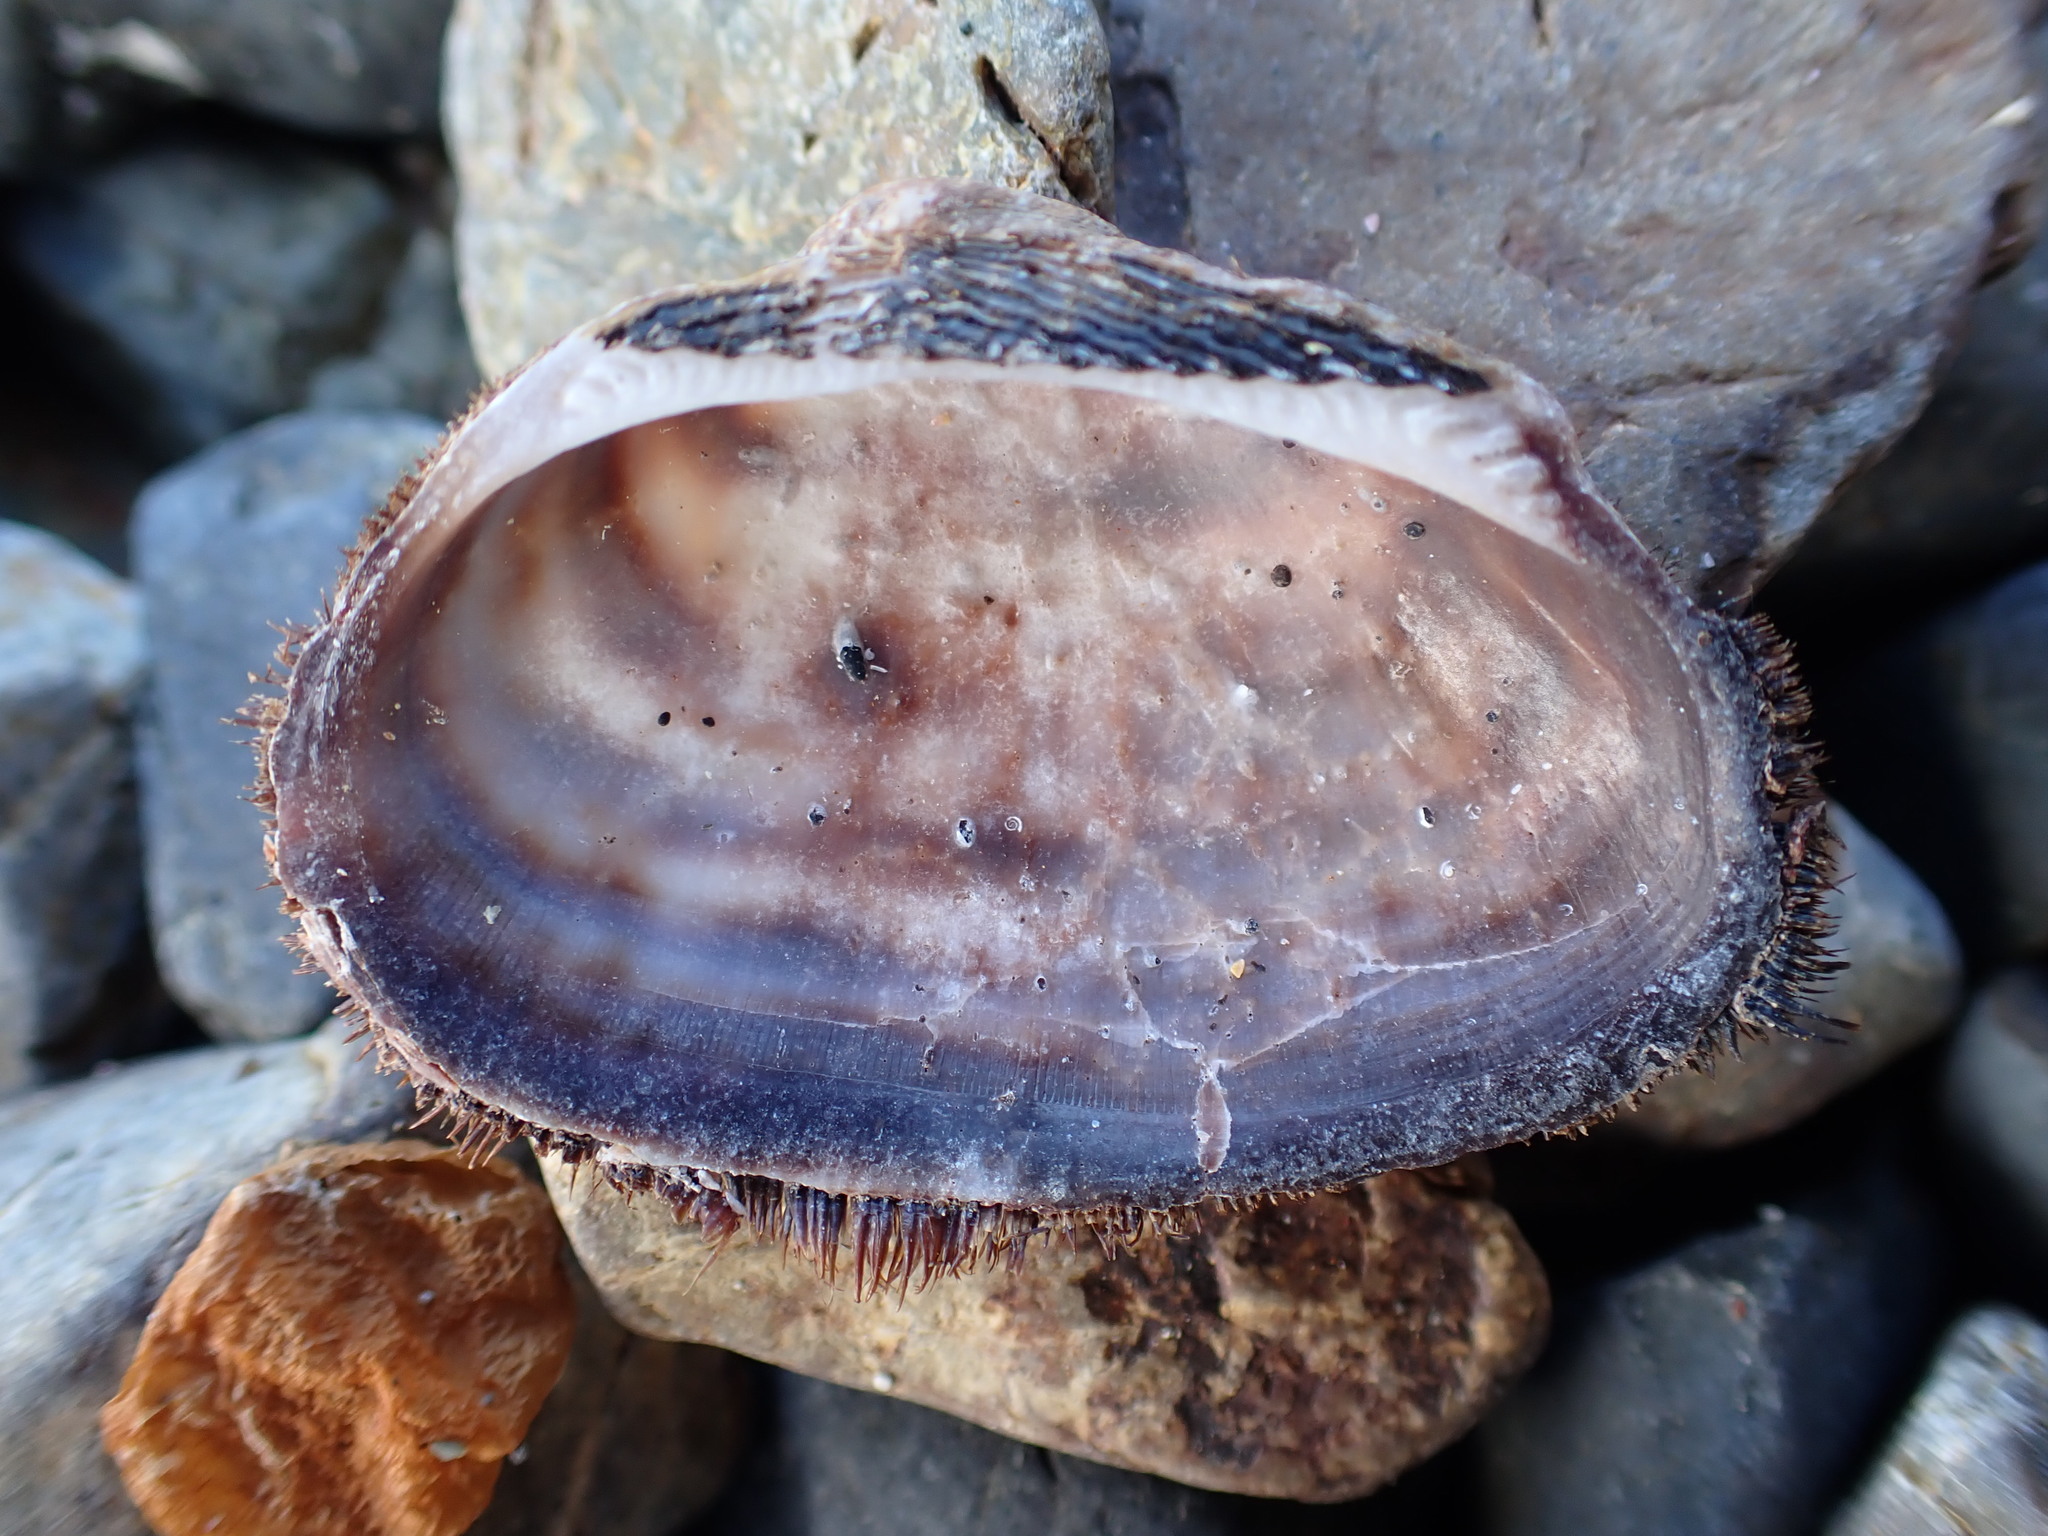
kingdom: Animalia
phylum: Arthropoda
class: Malacostraca
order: Decapoda
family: Palaemonidae
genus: Palaemon
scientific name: Palaemon affinis
